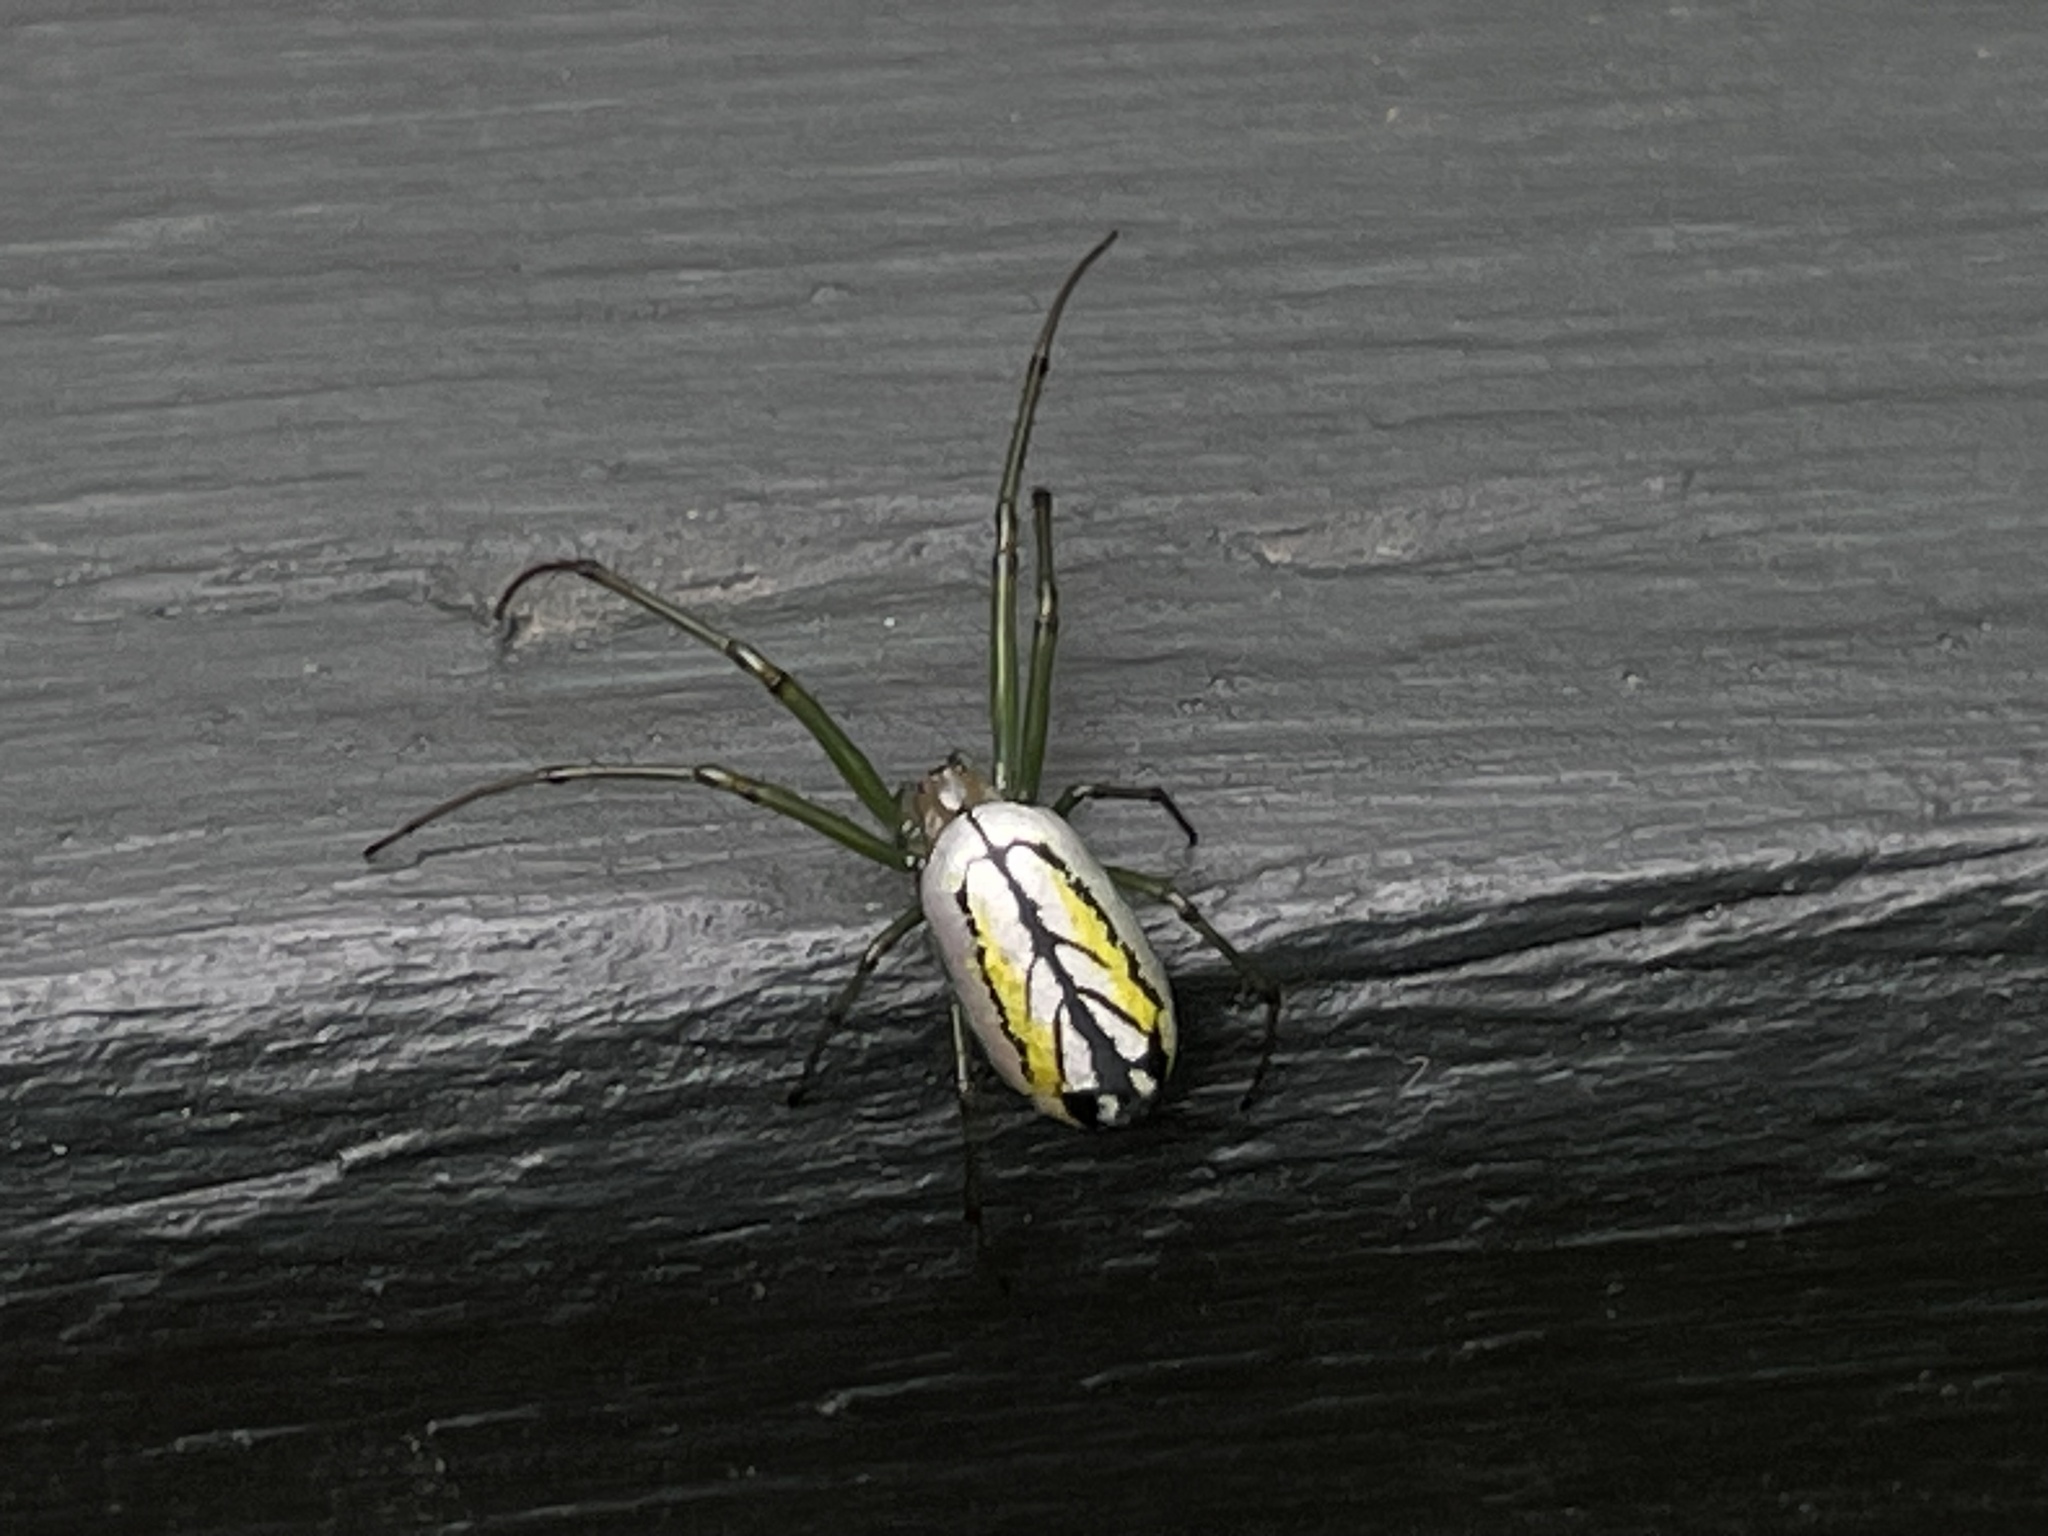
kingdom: Animalia
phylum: Arthropoda
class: Arachnida
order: Araneae
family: Tetragnathidae
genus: Leucauge
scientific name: Leucauge venusta
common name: Longjawed orb weavers
